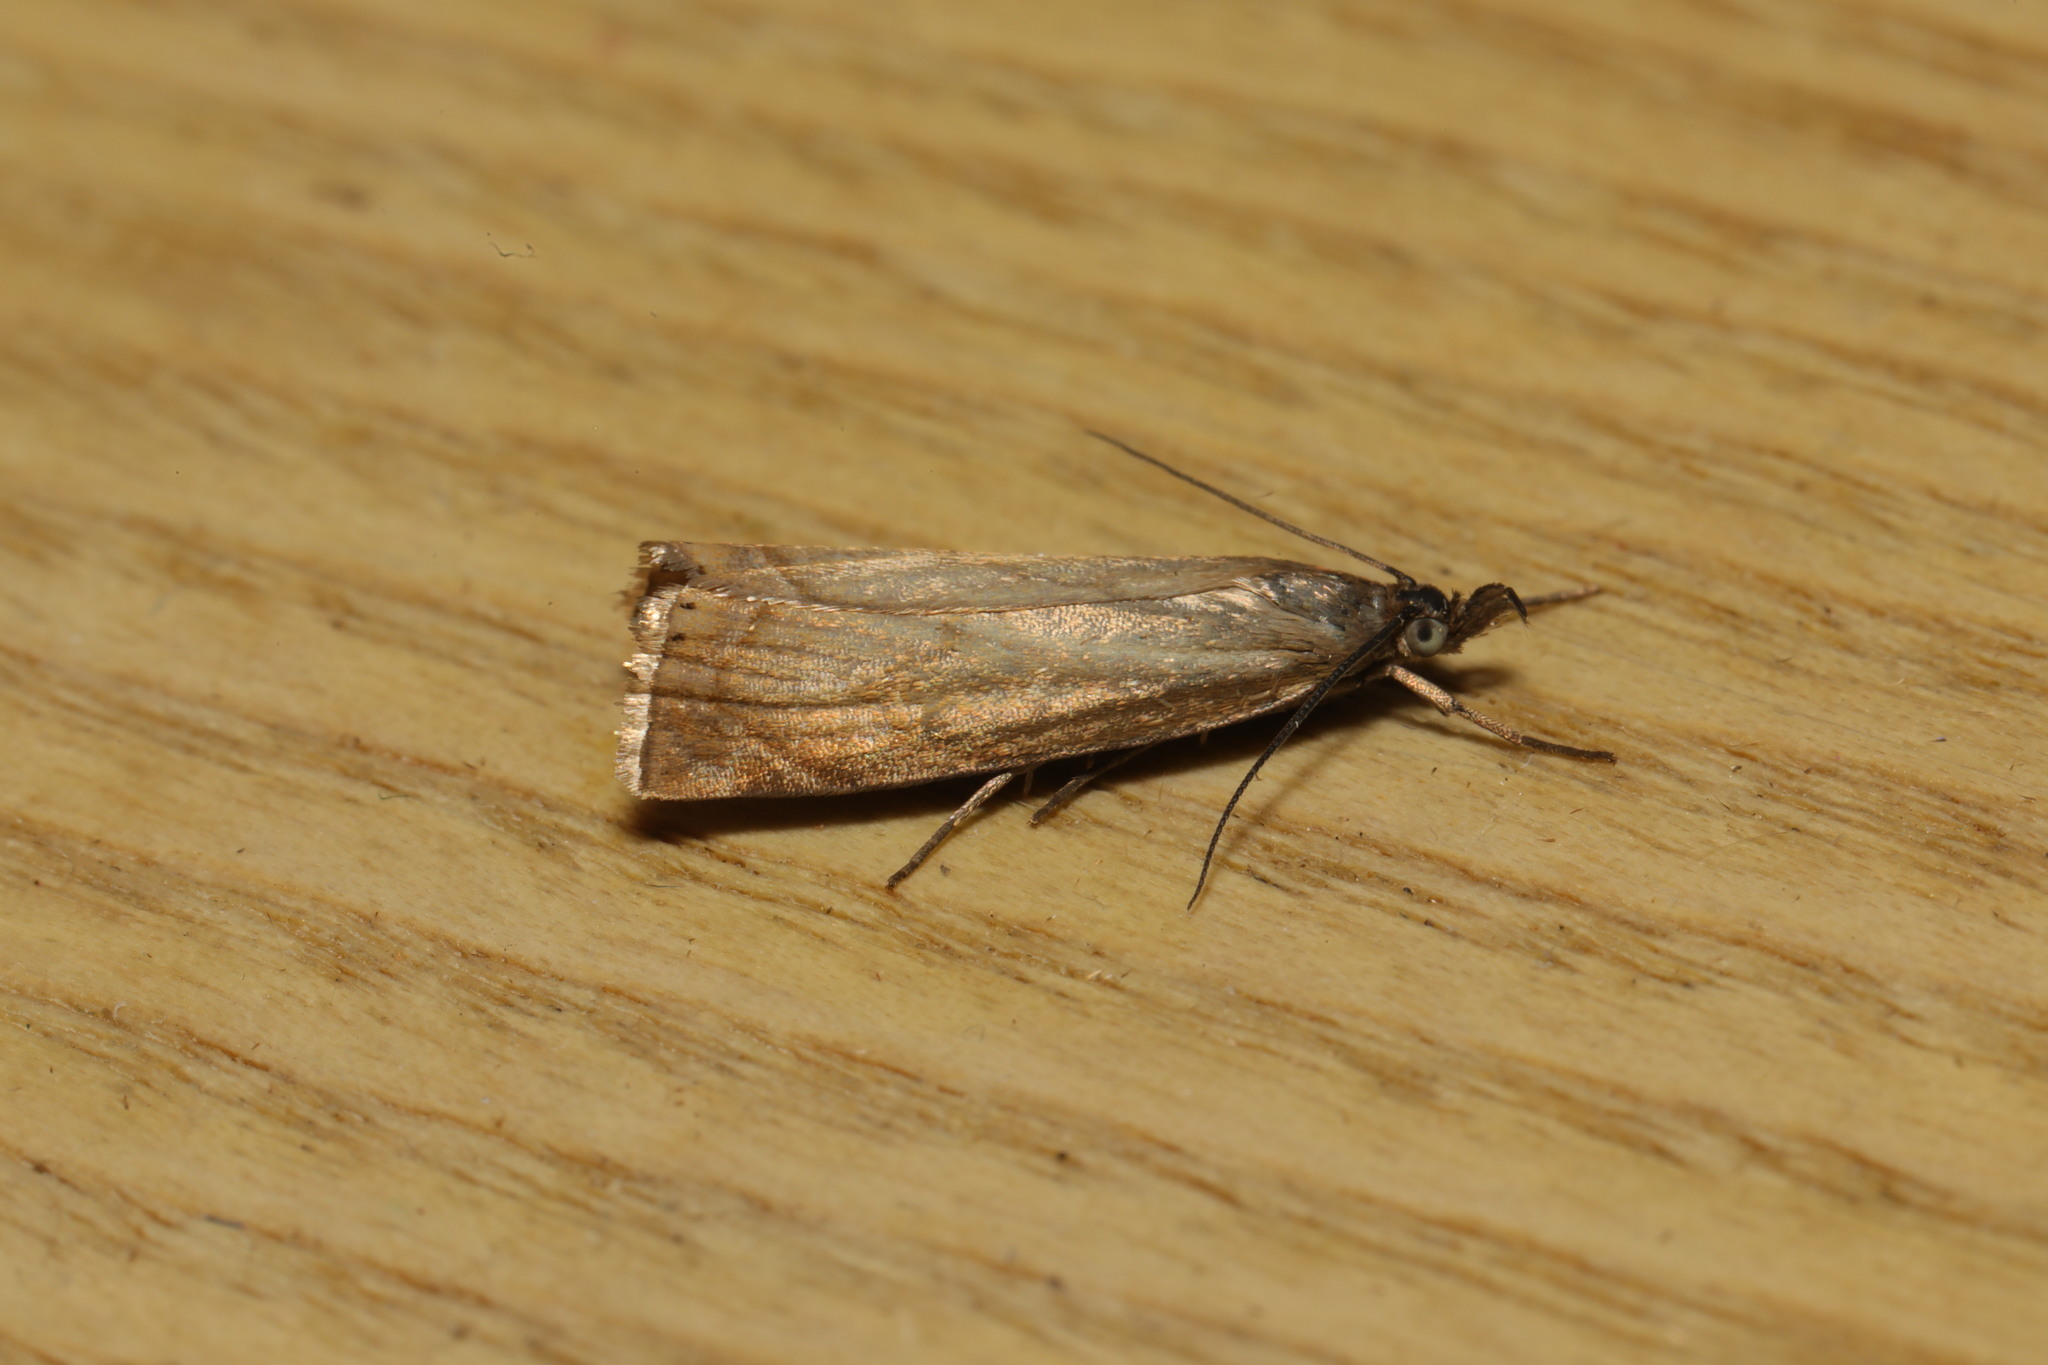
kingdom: Animalia
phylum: Arthropoda
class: Insecta
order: Lepidoptera
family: Crambidae
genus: Chrysoteuchia
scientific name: Chrysoteuchia culmella
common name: Garden grass-veneer
